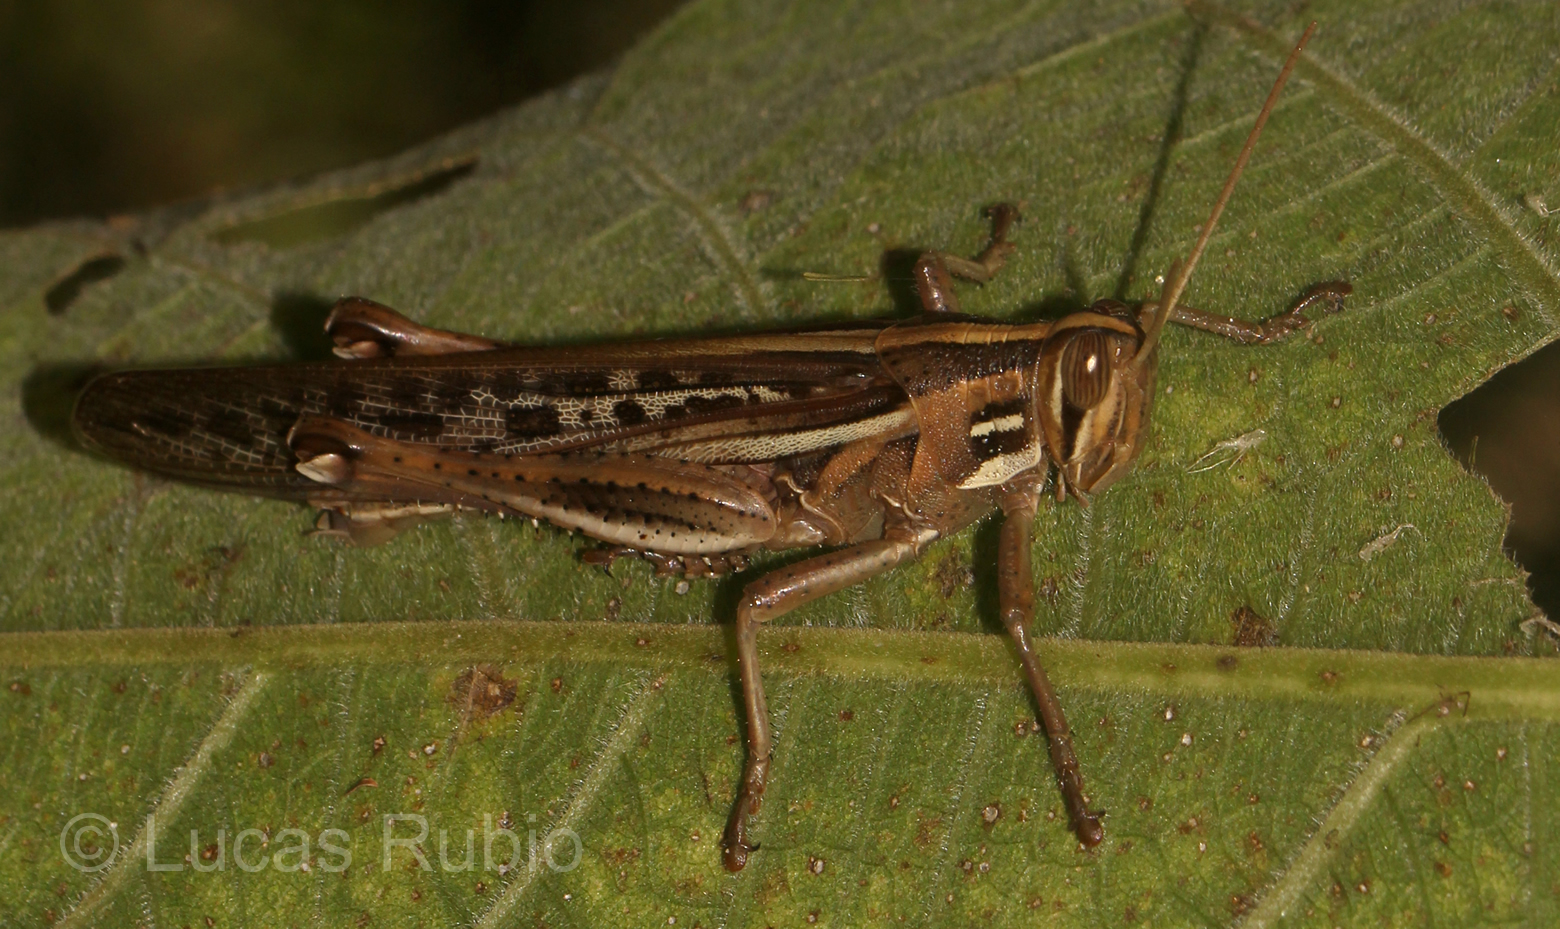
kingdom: Animalia
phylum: Arthropoda
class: Insecta
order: Orthoptera
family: Acrididae
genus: Schistocerca
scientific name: Schistocerca cancellata
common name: South american locust
